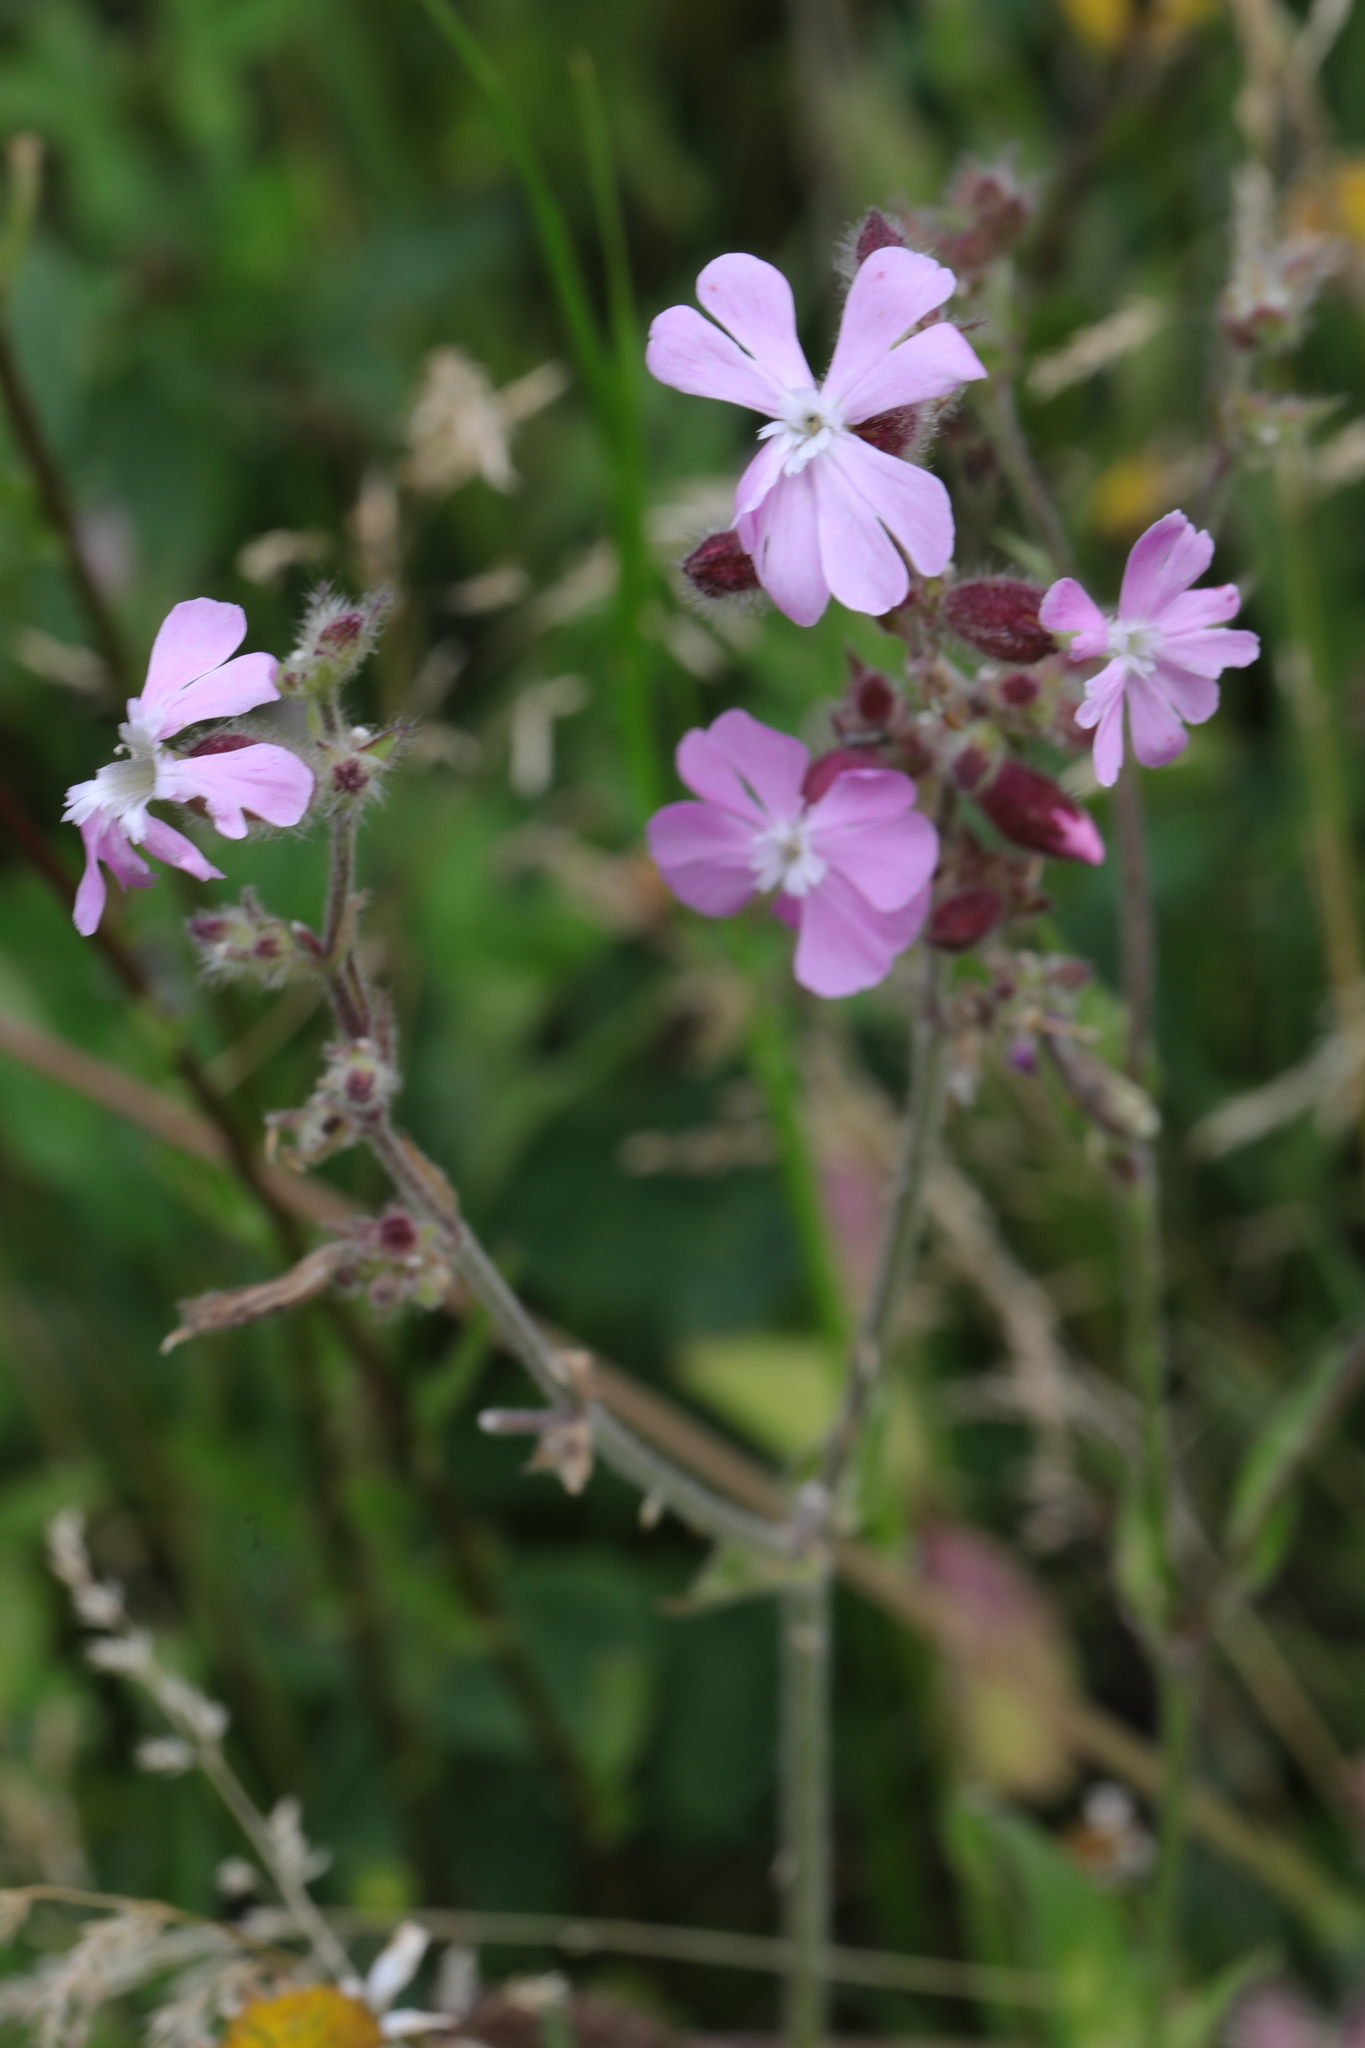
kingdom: Plantae
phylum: Tracheophyta
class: Magnoliopsida
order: Caryophyllales
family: Caryophyllaceae
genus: Silene
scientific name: Silene dioica
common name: Red campion
